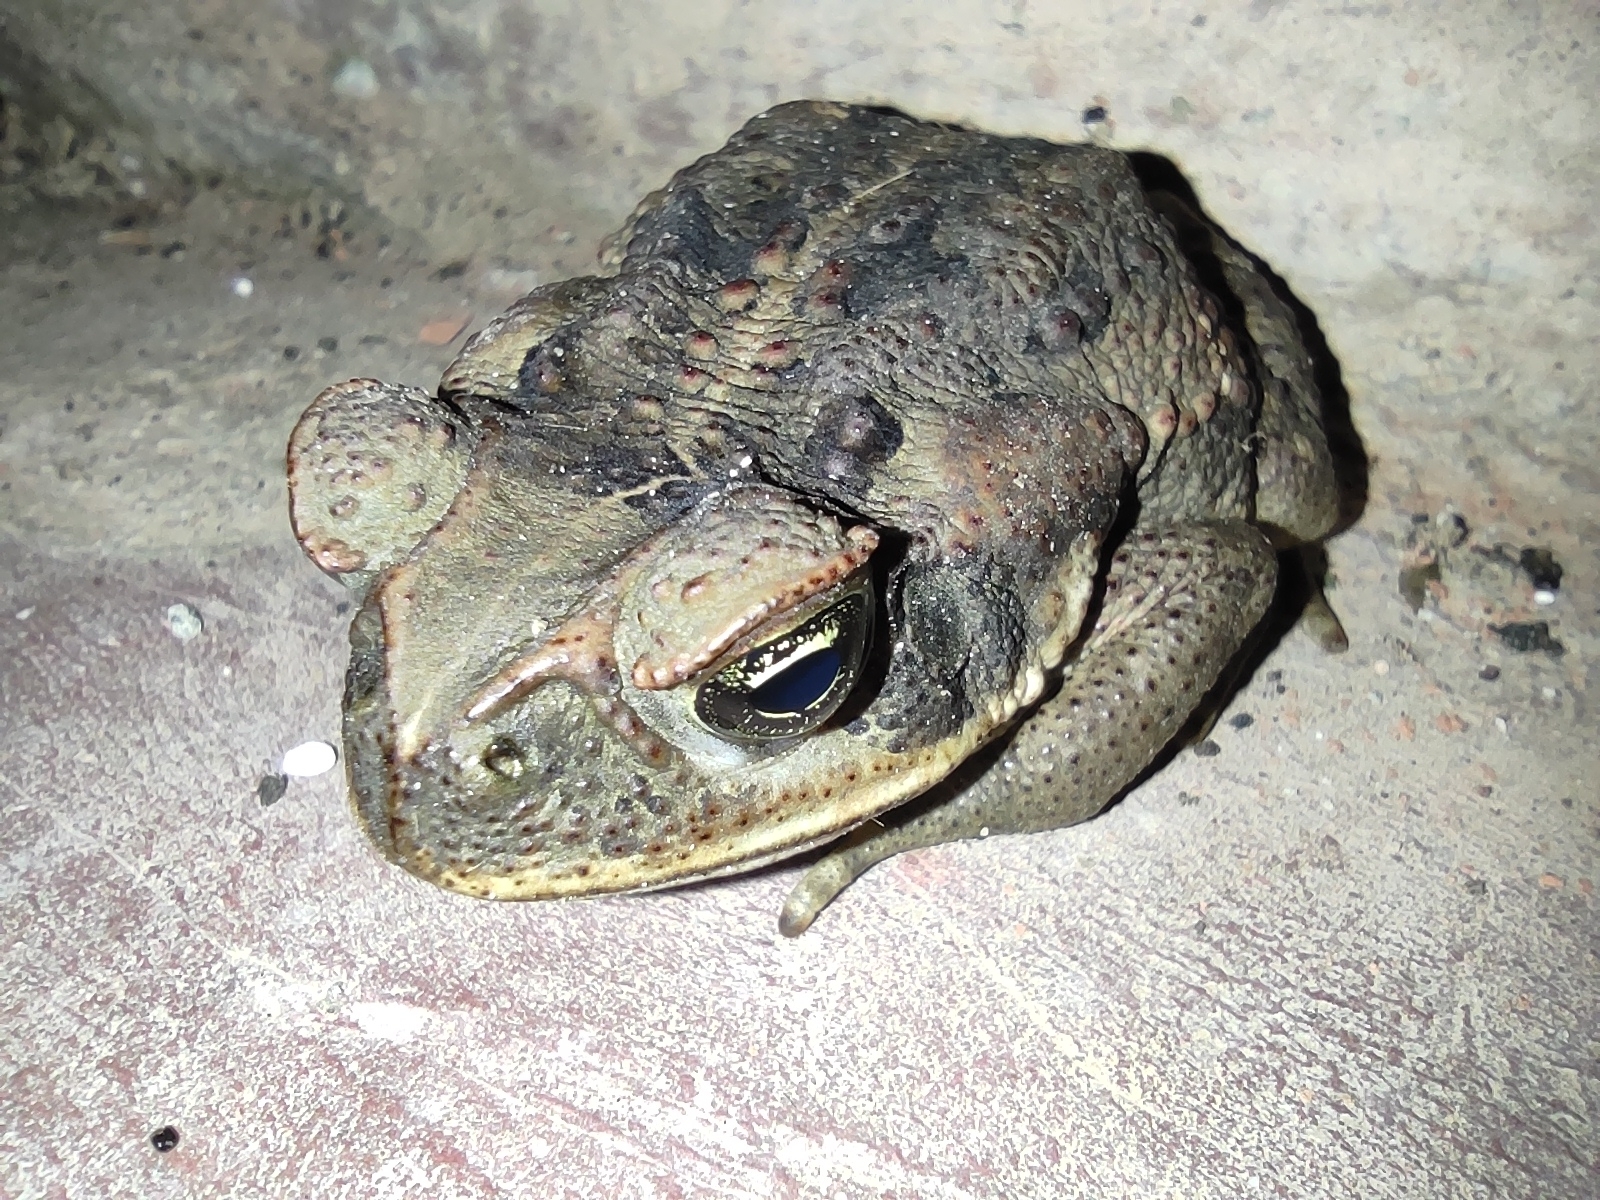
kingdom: Animalia
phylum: Chordata
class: Amphibia
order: Anura
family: Bufonidae
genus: Rhinella
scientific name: Rhinella horribilis
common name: Mesoamerican cane toad
